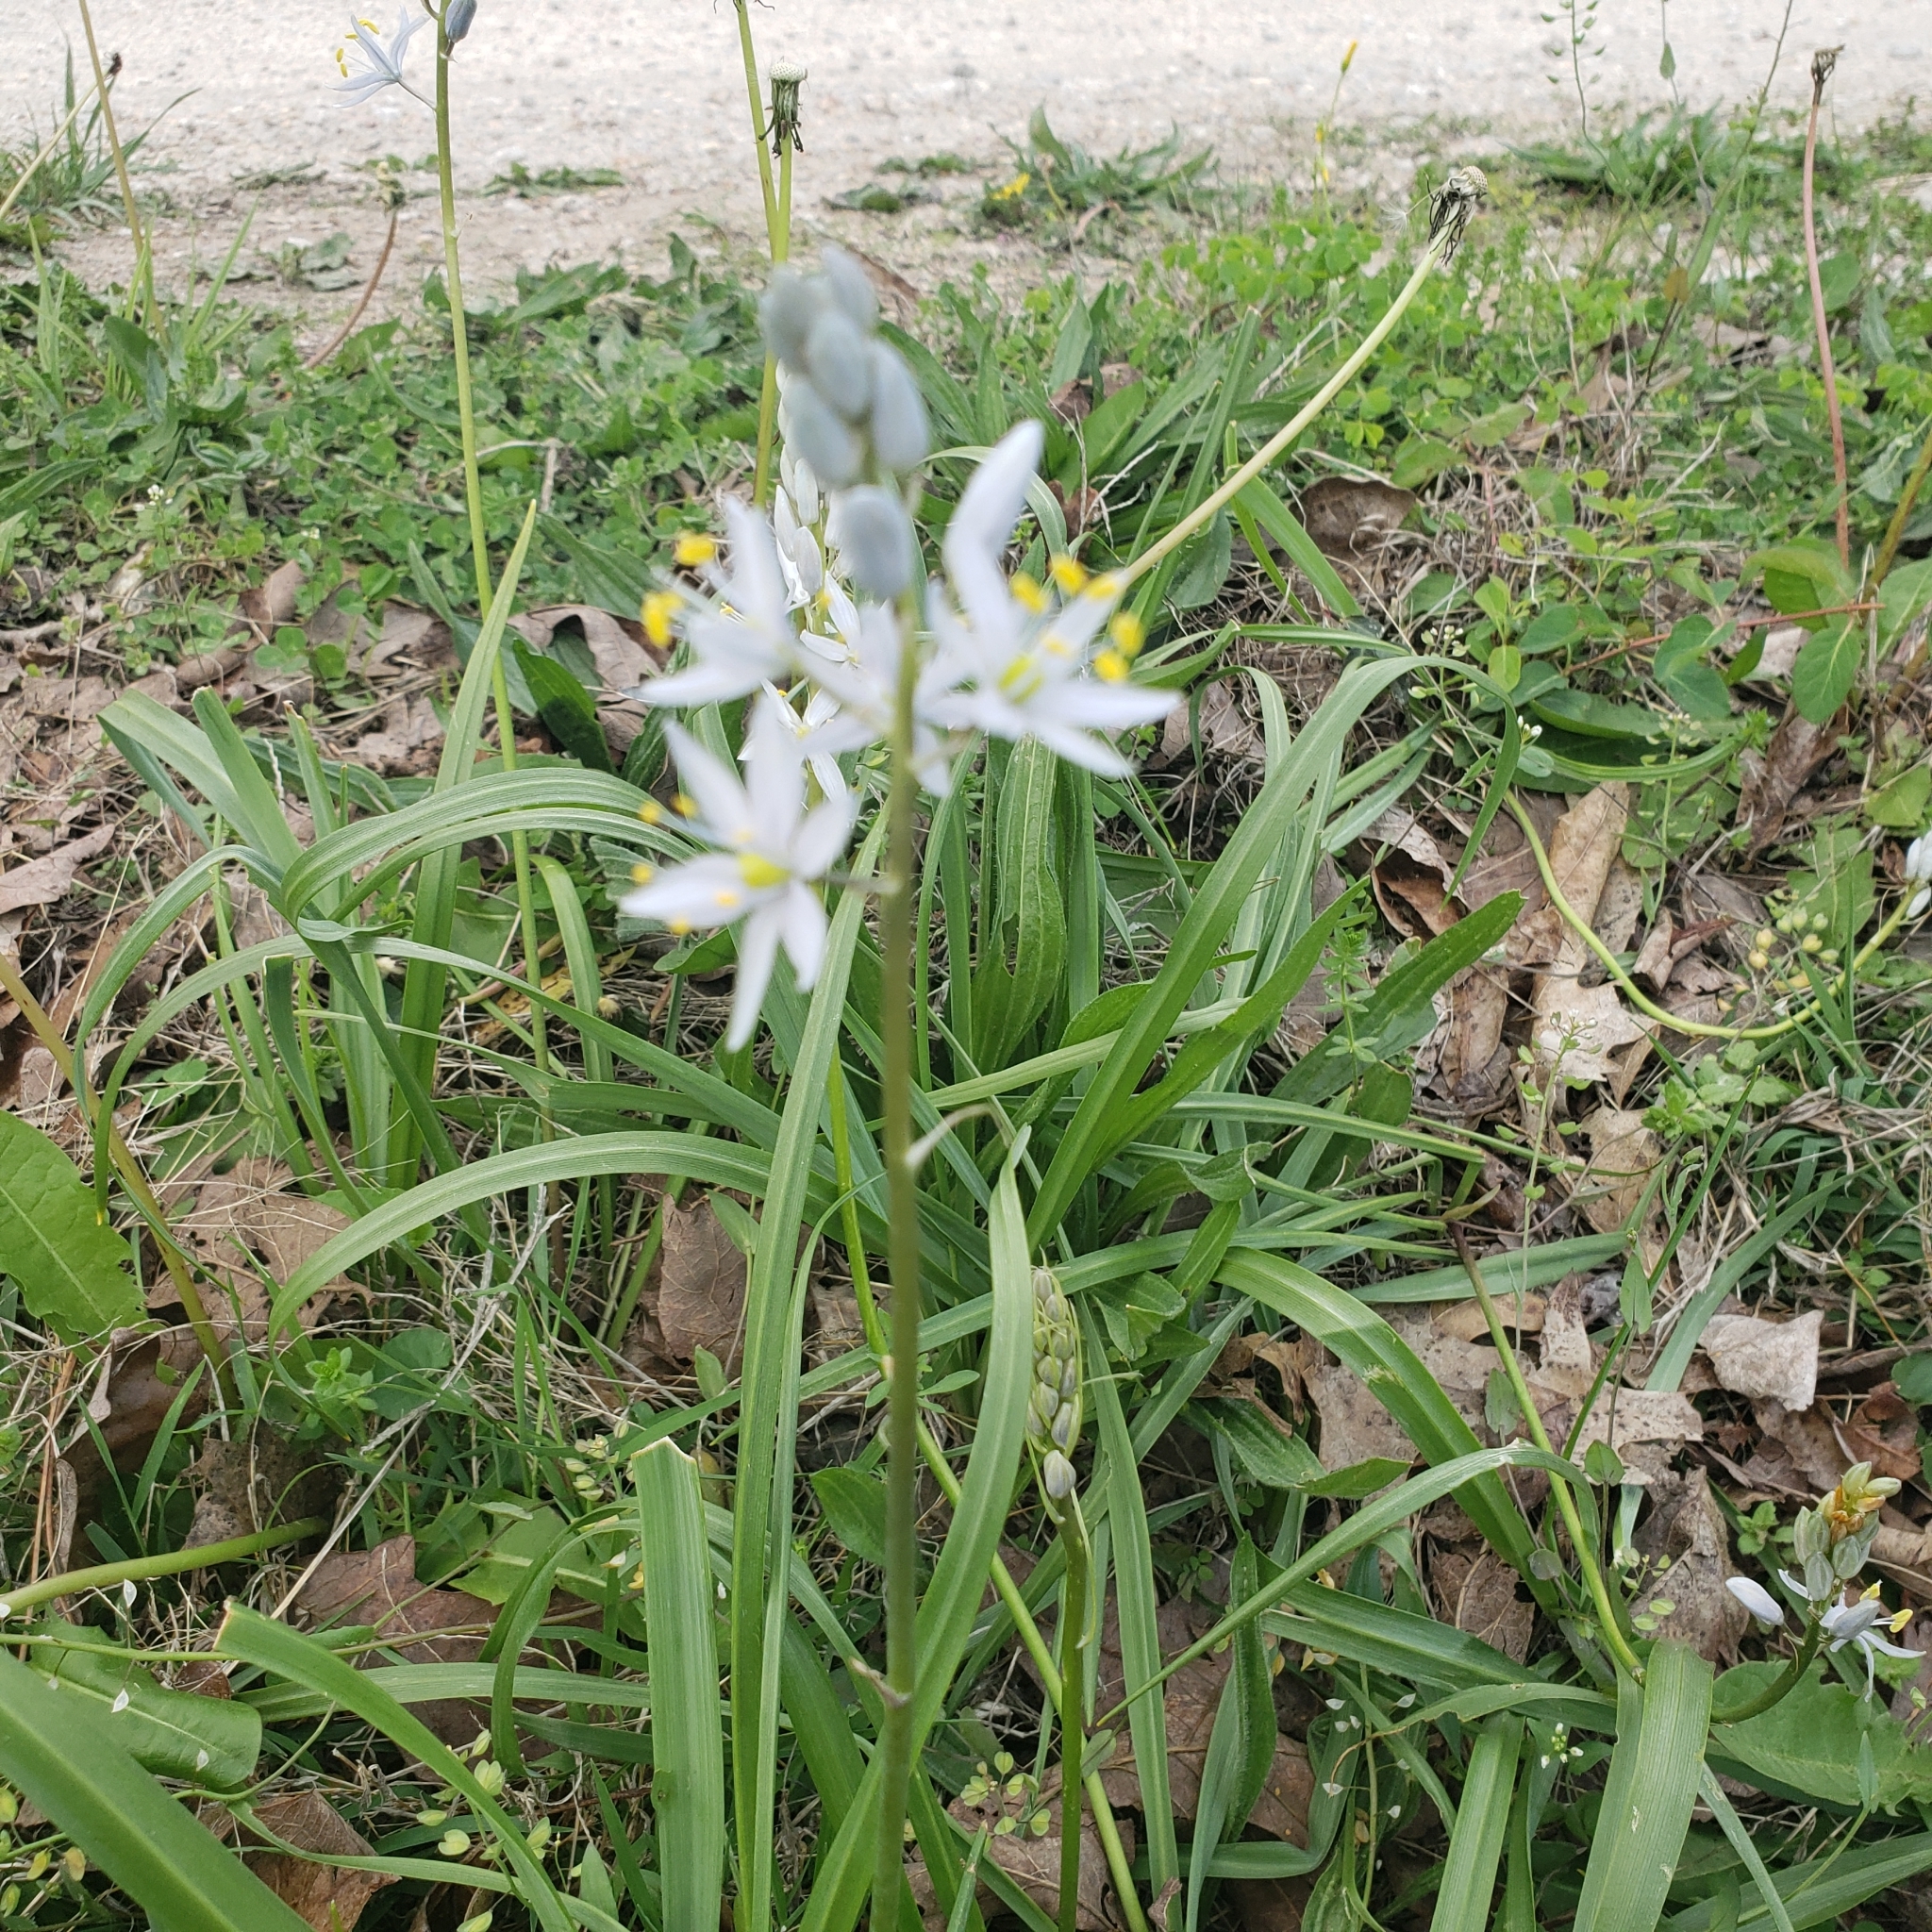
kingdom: Plantae
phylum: Tracheophyta
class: Liliopsida
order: Asparagales
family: Asparagaceae
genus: Camassia
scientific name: Camassia scilloides
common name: Wild hyacinth
